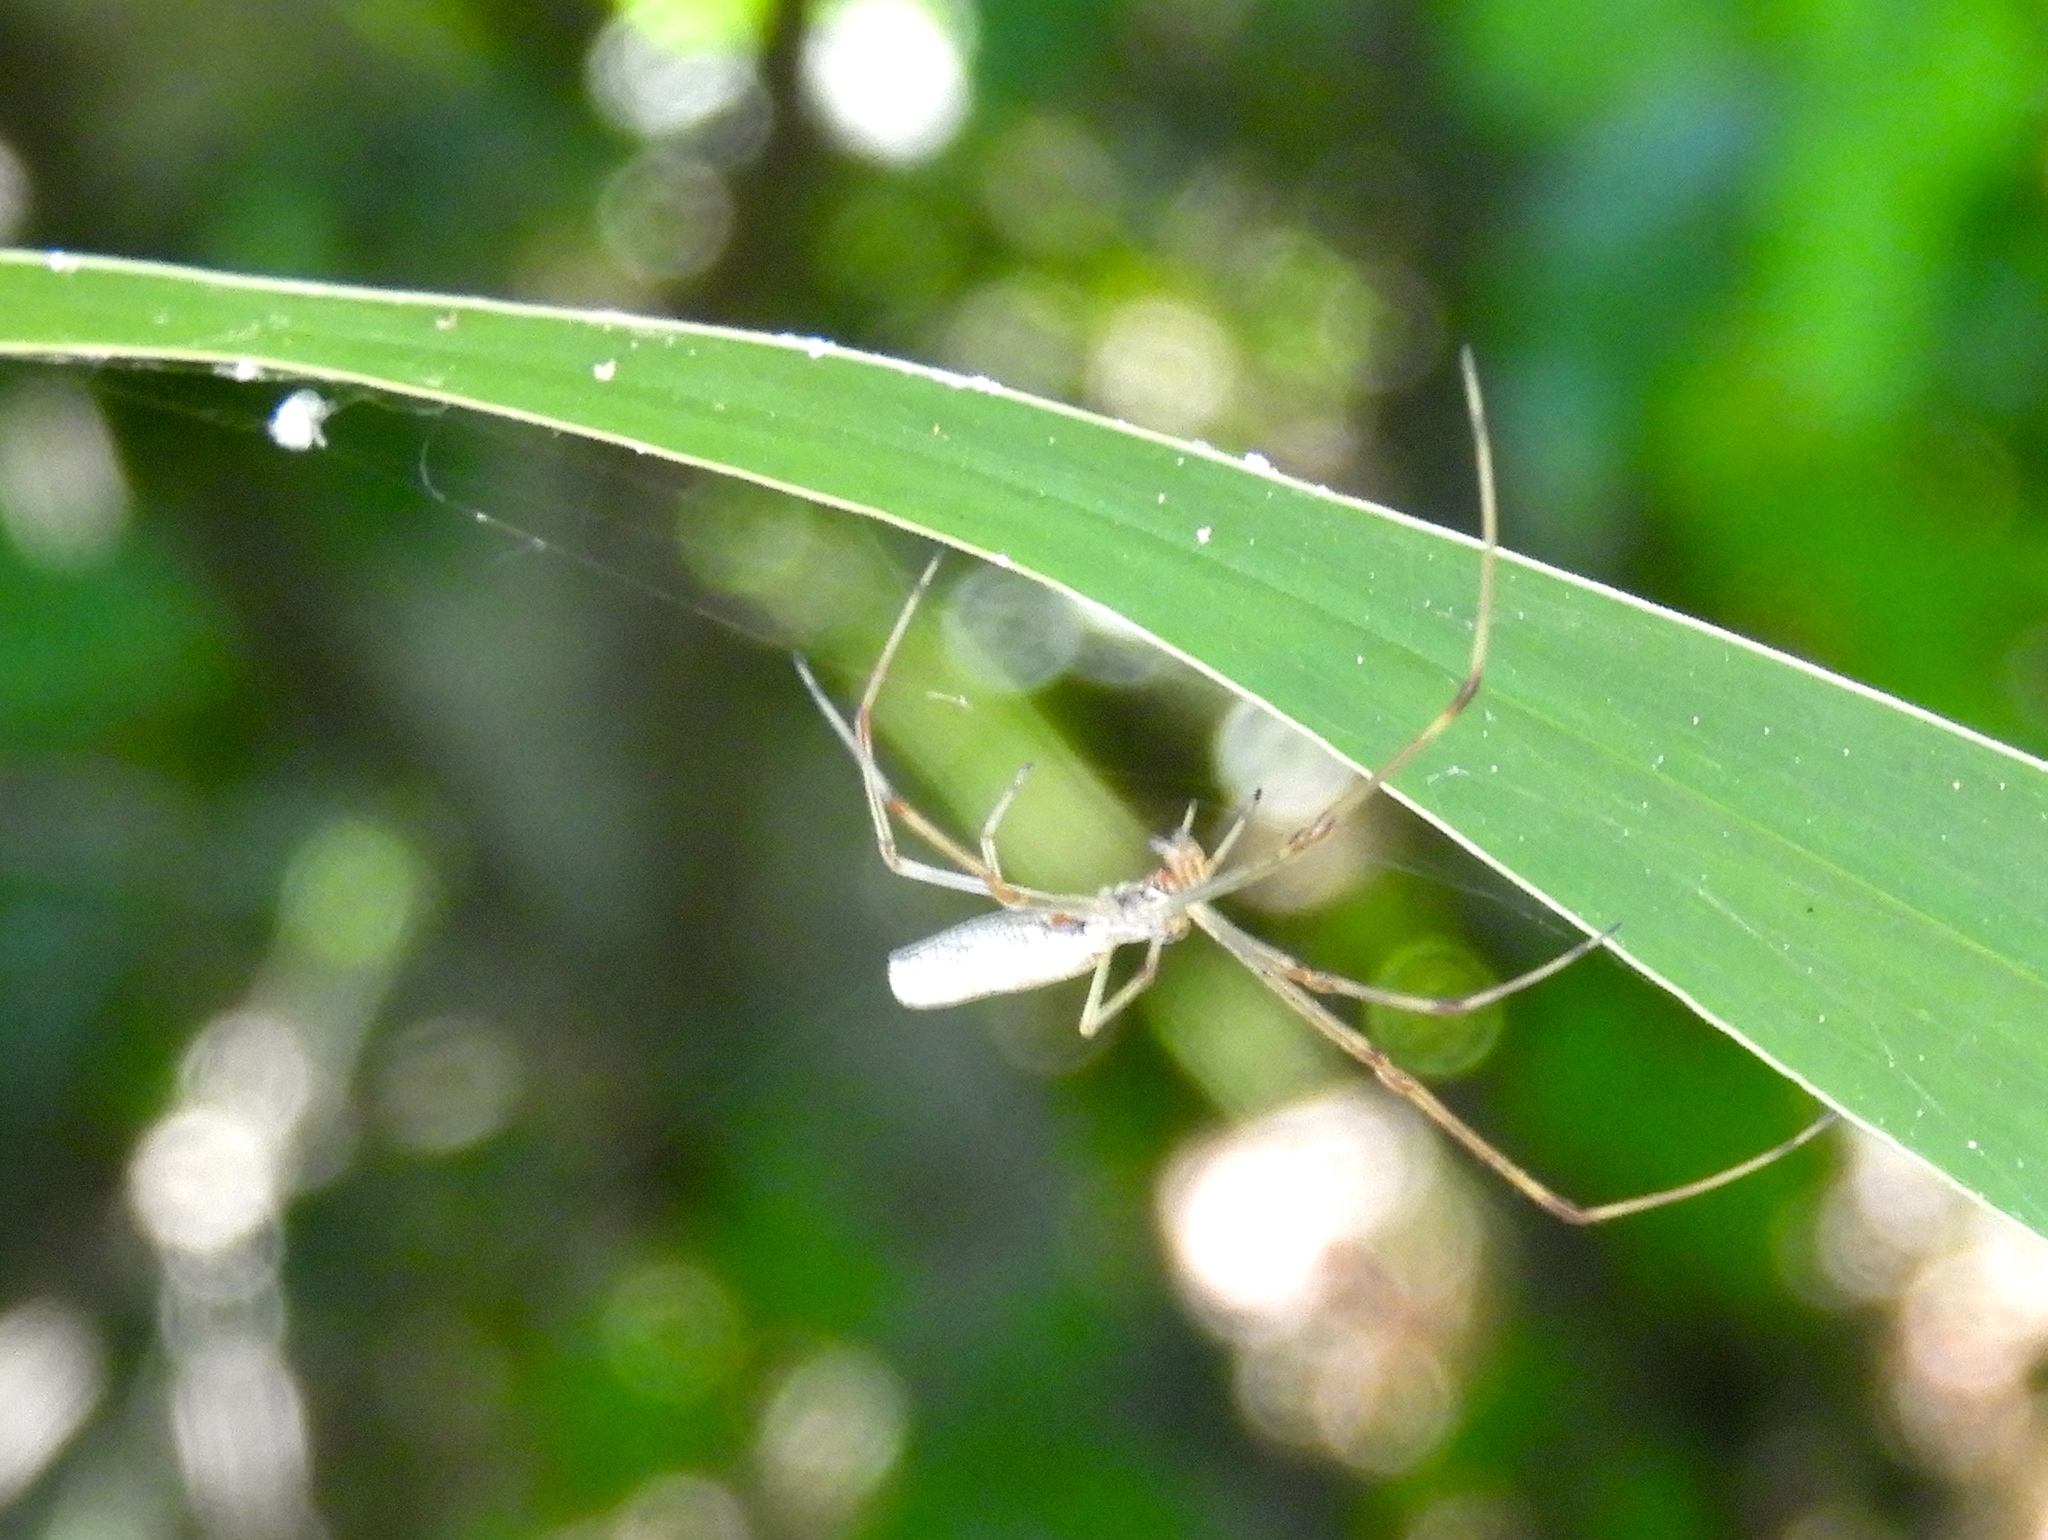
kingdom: Animalia
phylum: Arthropoda
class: Arachnida
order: Araneae
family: Tetragnathidae
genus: Tetragnatha
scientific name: Tetragnatha
